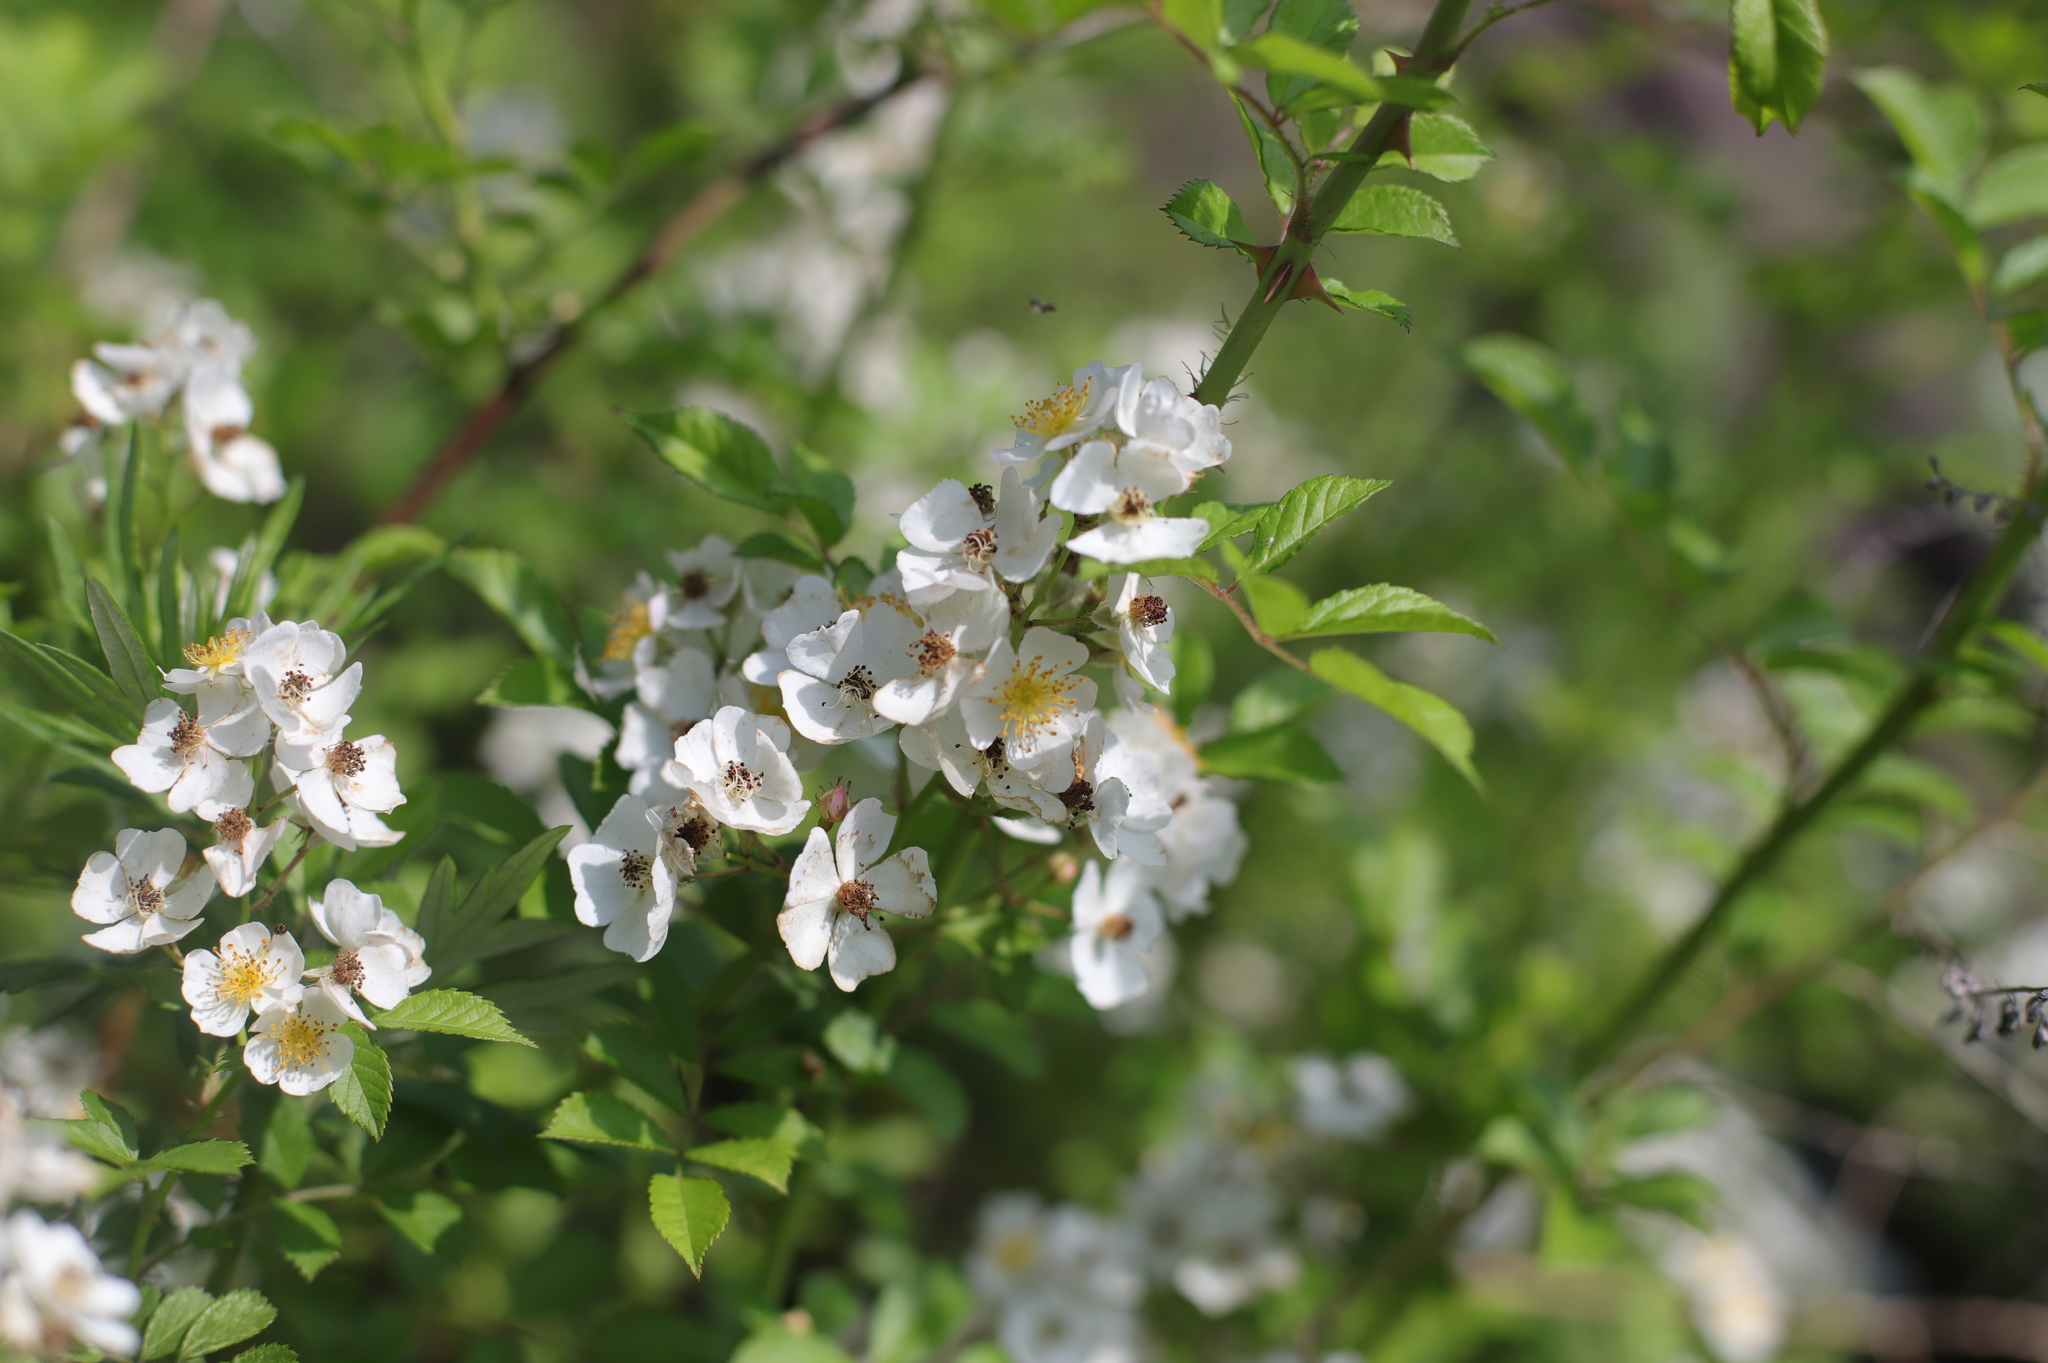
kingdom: Plantae
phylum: Tracheophyta
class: Magnoliopsida
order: Rosales
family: Rosaceae
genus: Rosa
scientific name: Rosa multiflora
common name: Multiflora rose
